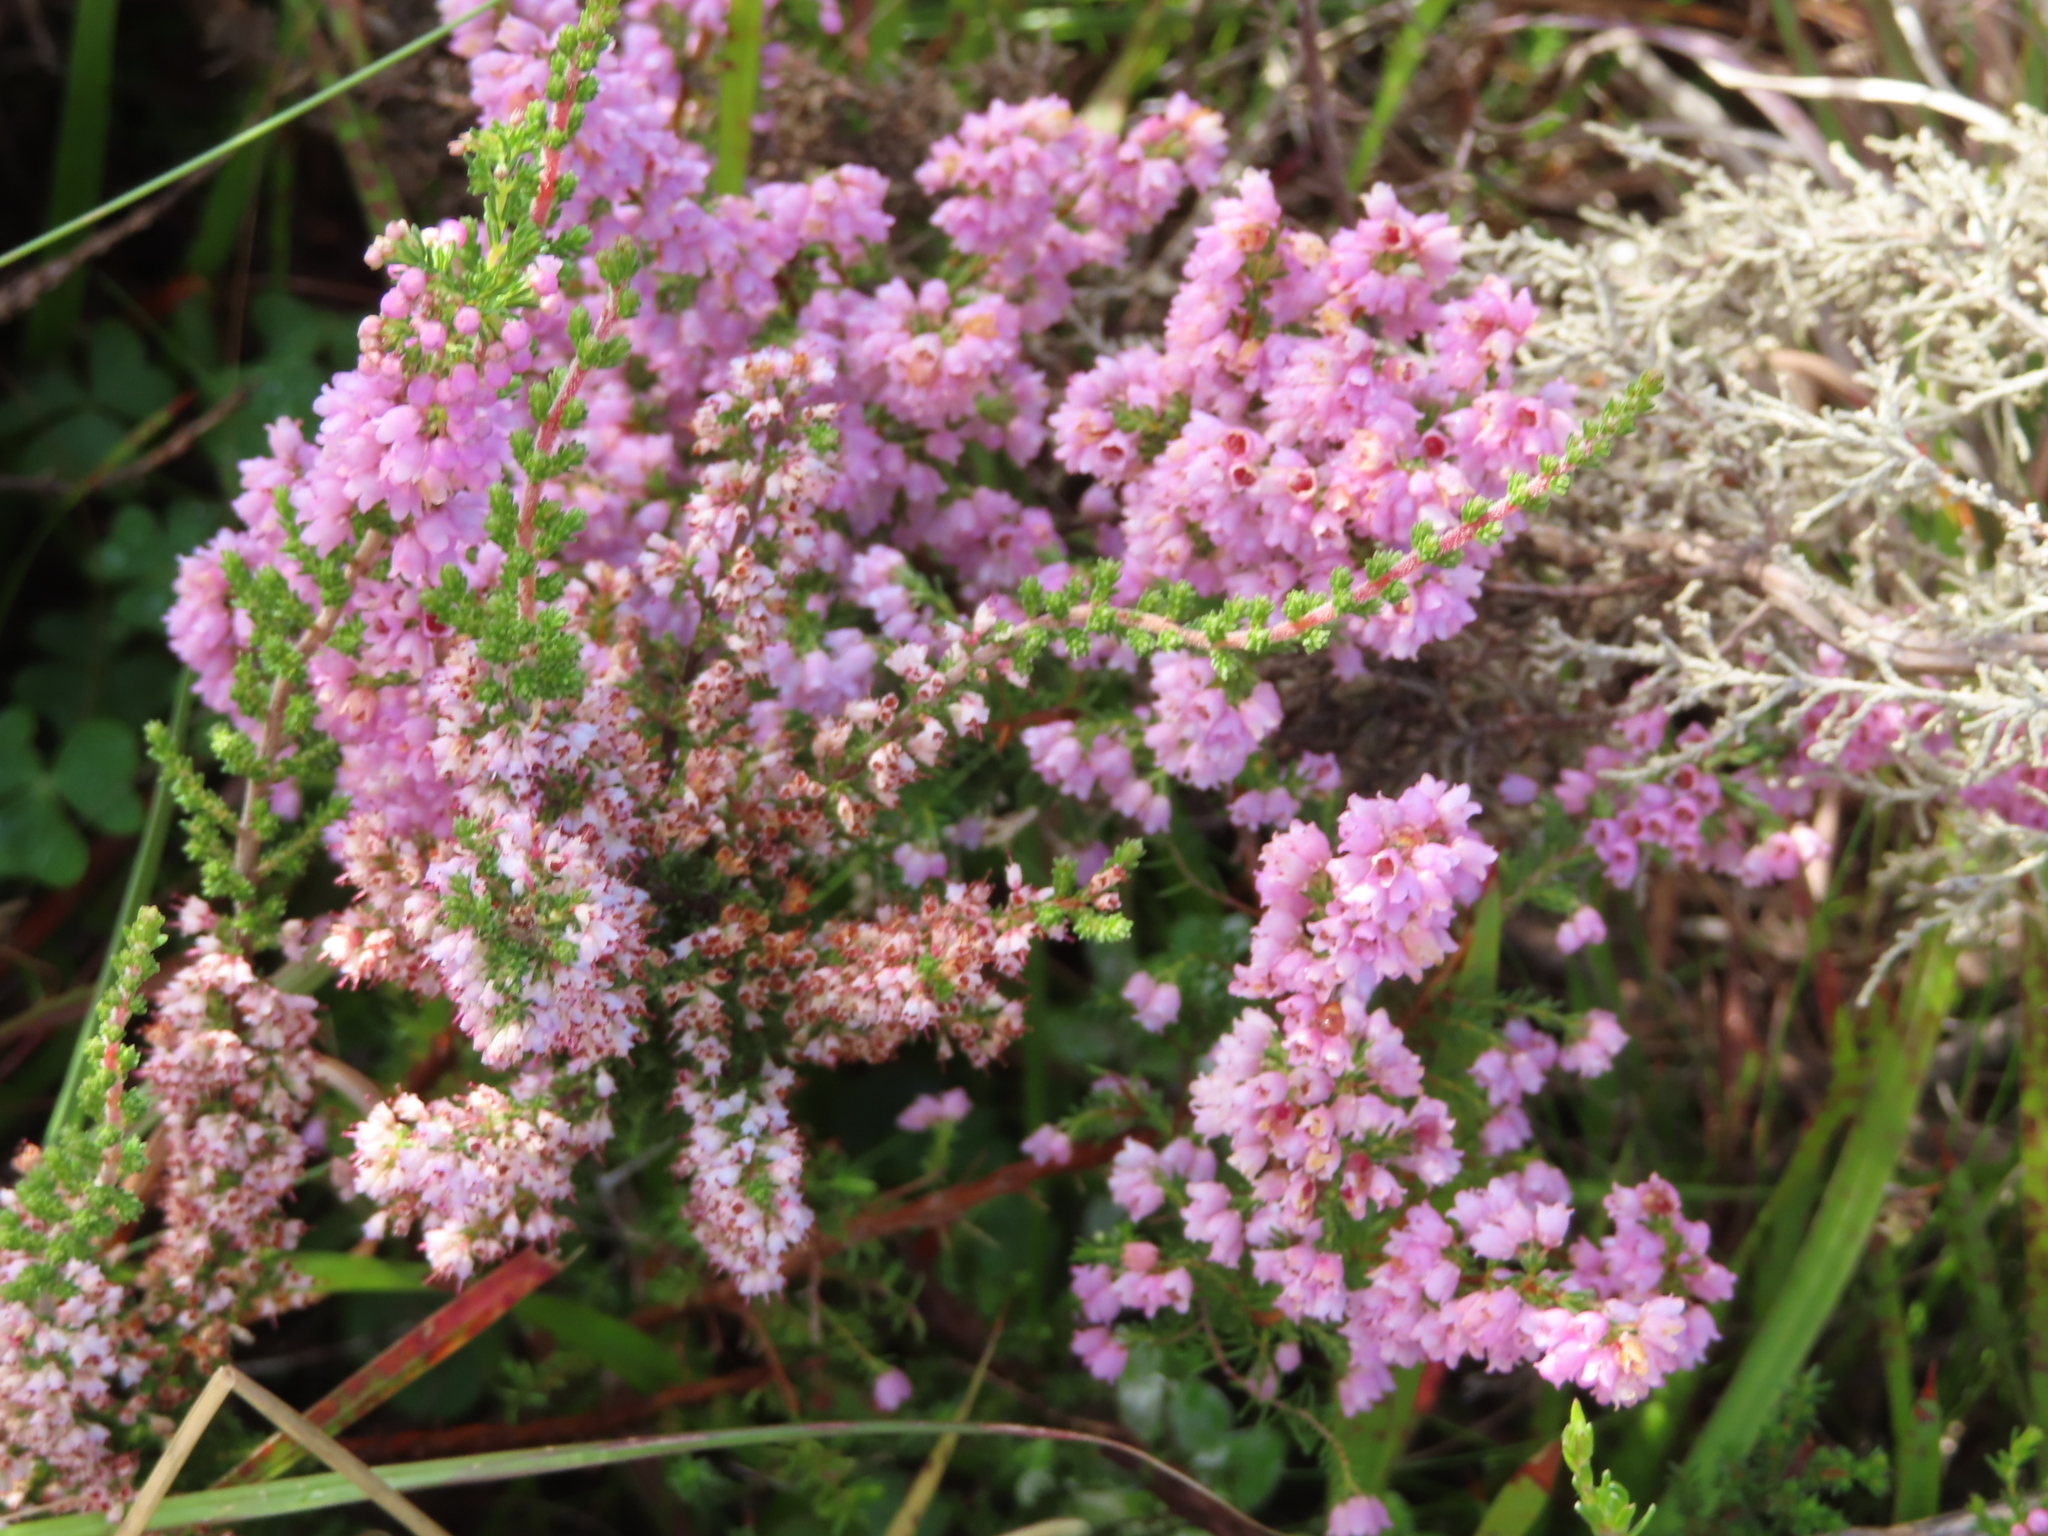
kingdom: Plantae
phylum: Tracheophyta
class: Magnoliopsida
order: Ericales
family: Ericaceae
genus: Erica
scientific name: Erica quadrangularis
